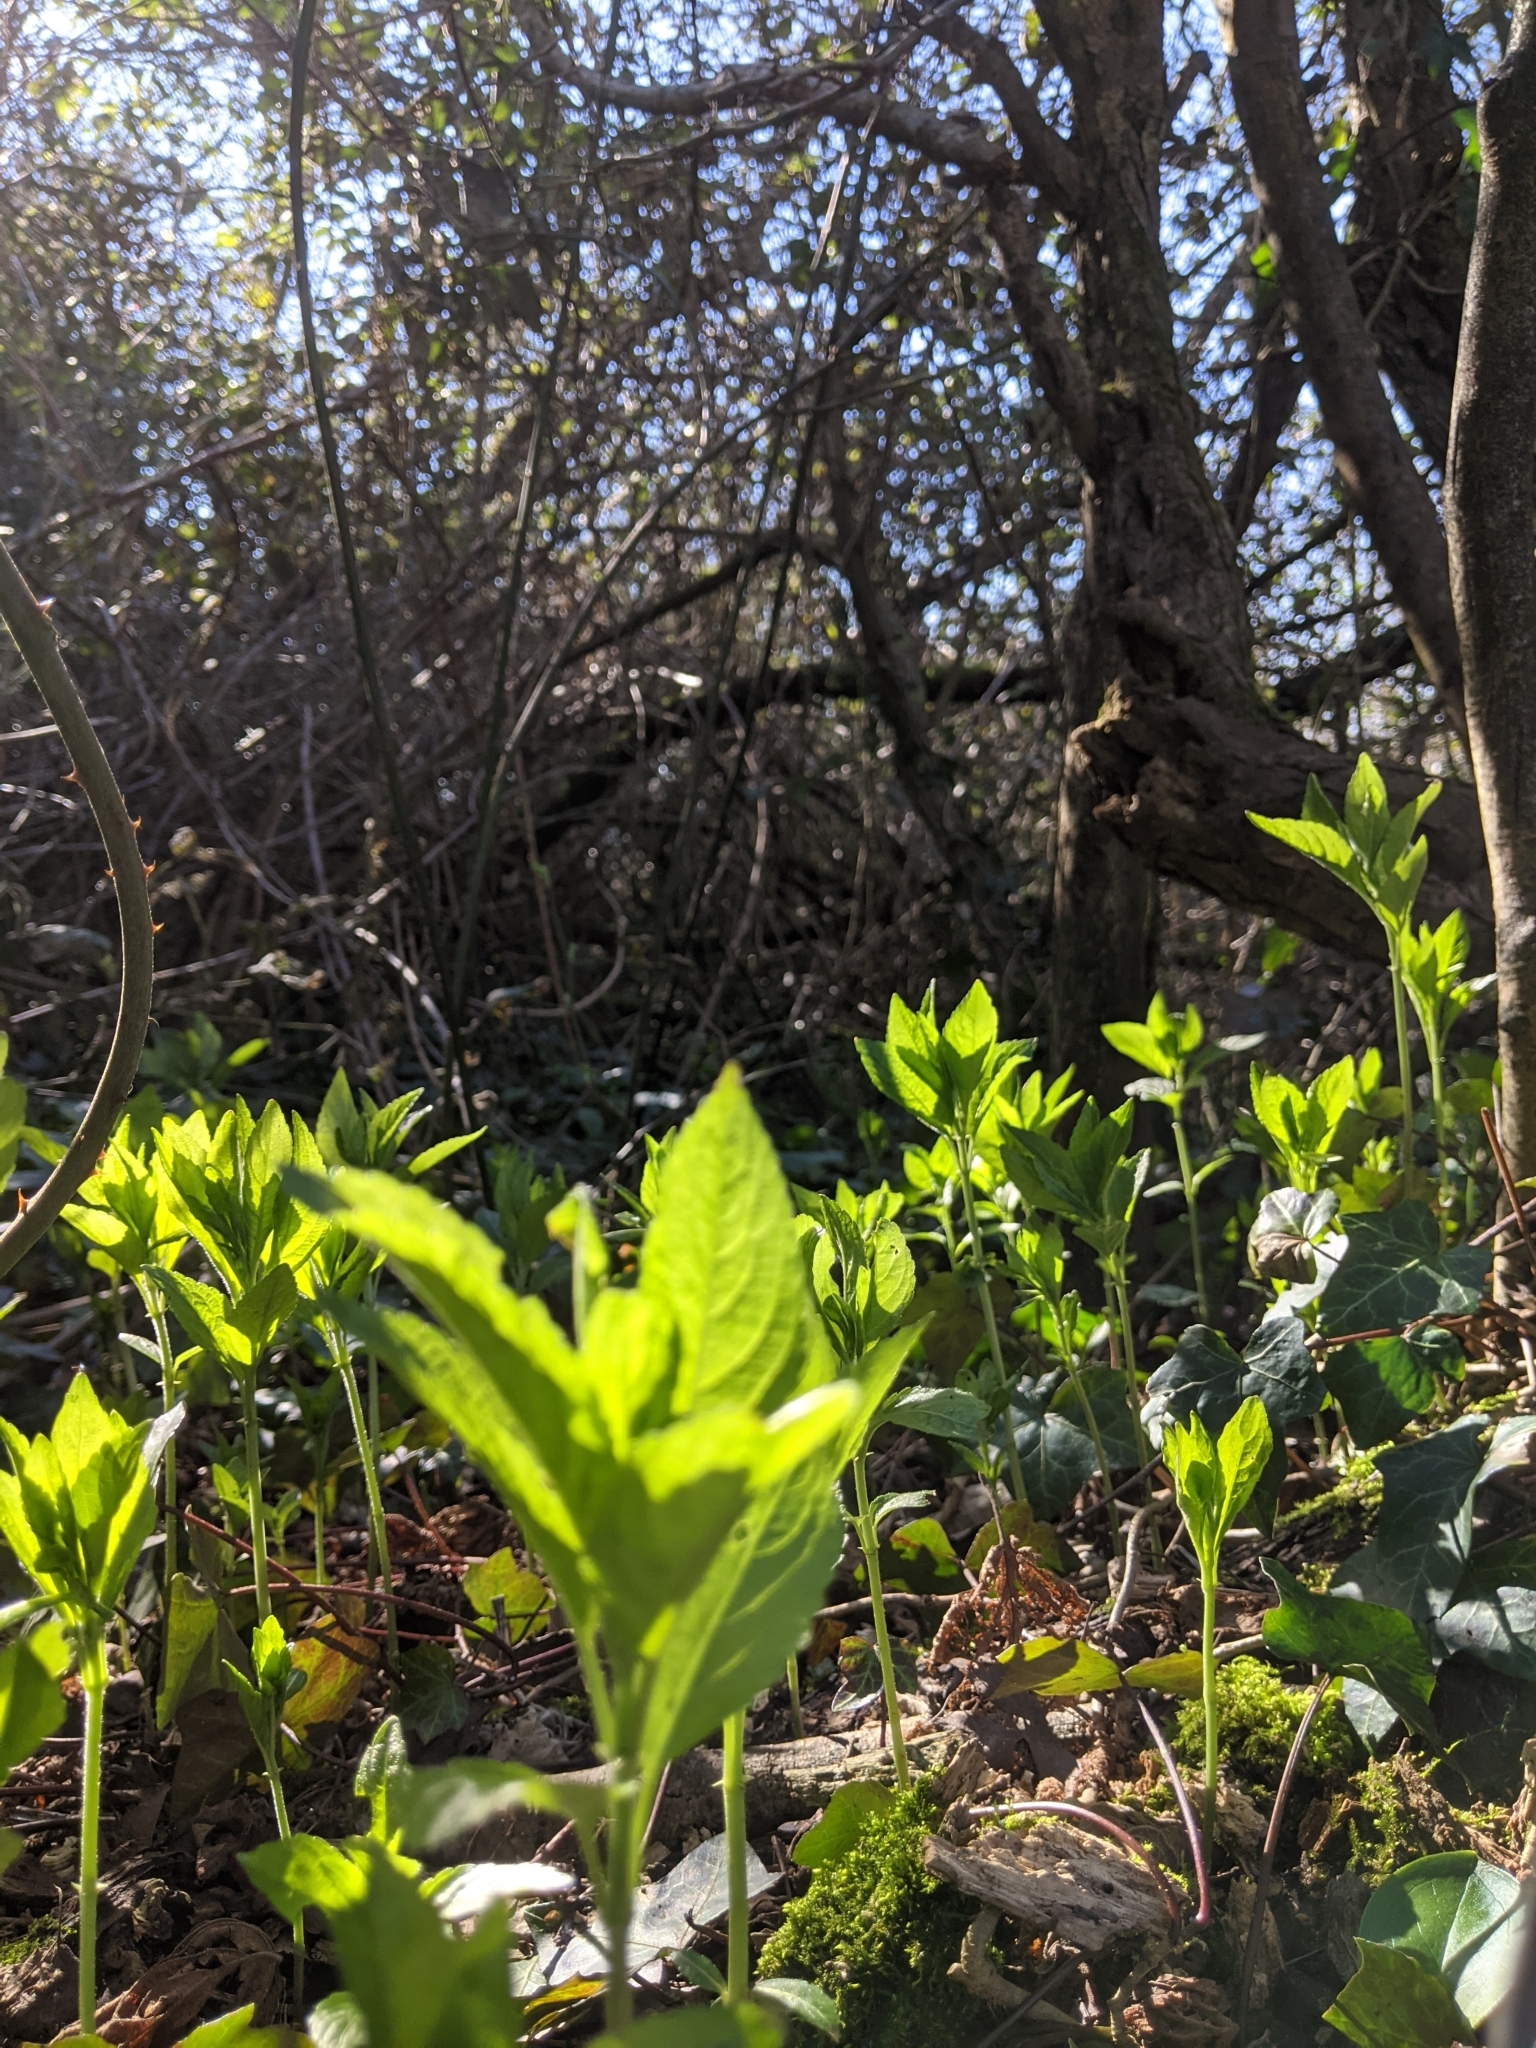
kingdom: Plantae
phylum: Tracheophyta
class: Magnoliopsida
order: Malpighiales
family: Euphorbiaceae
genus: Mercurialis
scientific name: Mercurialis perennis
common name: Dog mercury
